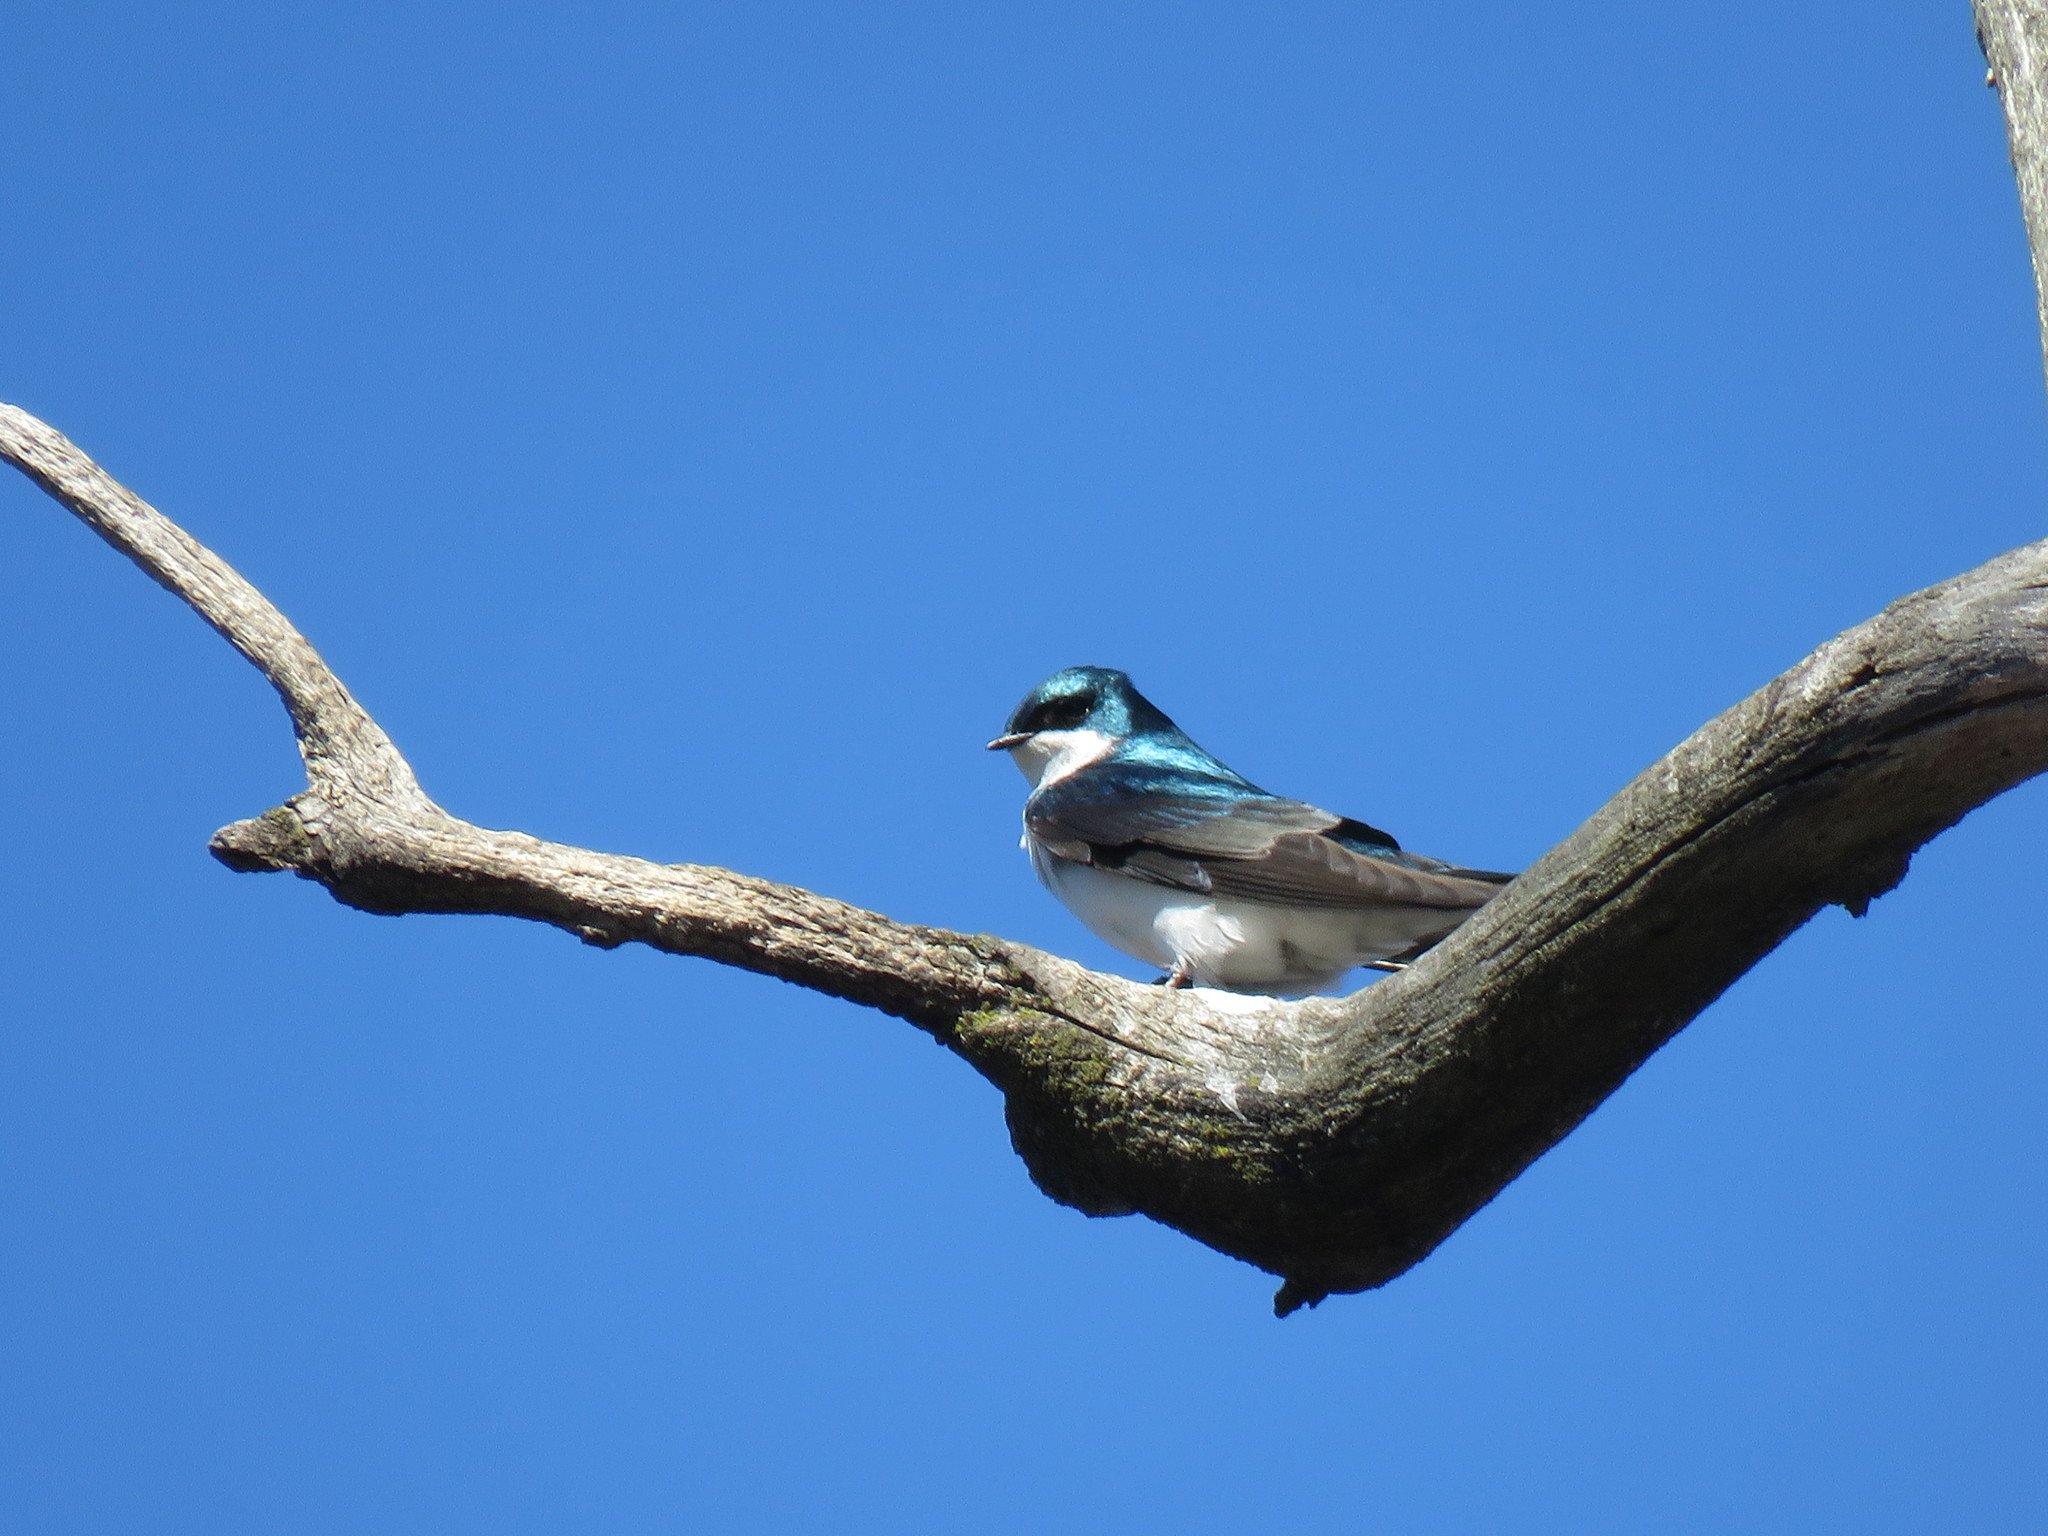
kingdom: Animalia
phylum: Chordata
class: Aves
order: Passeriformes
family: Hirundinidae
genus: Tachycineta
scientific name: Tachycineta bicolor
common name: Tree swallow
